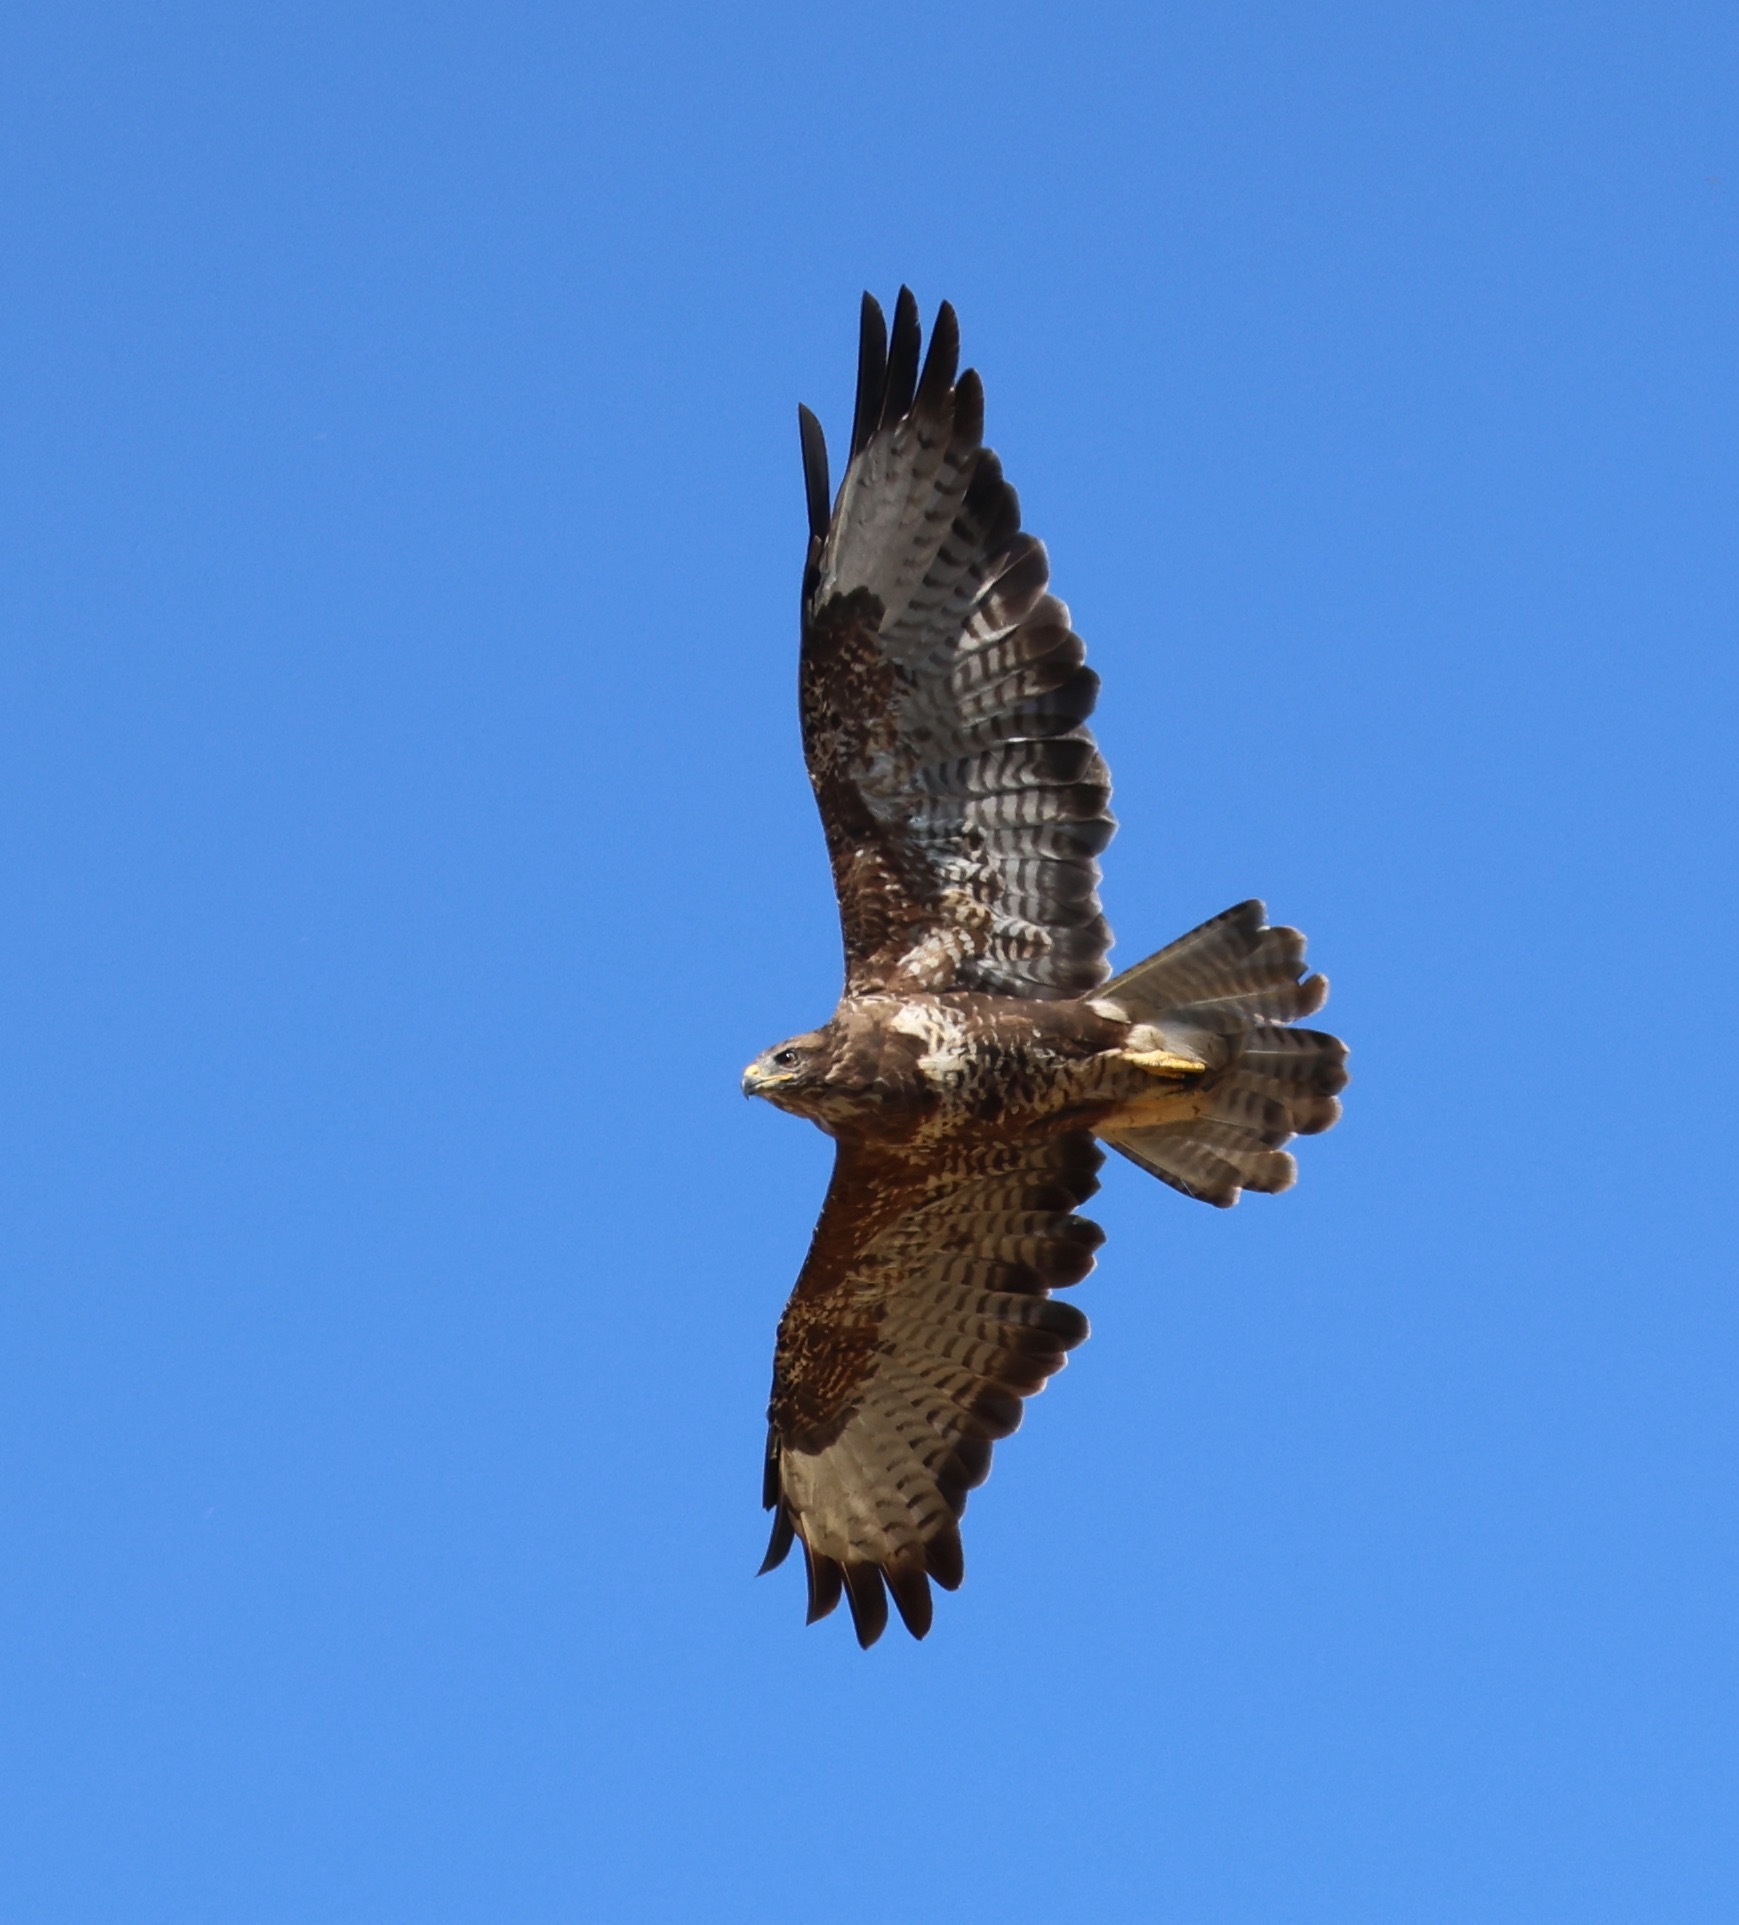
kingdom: Animalia
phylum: Chordata
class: Aves
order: Accipitriformes
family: Accipitridae
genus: Buteo
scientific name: Buteo buteo
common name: Common buzzard
